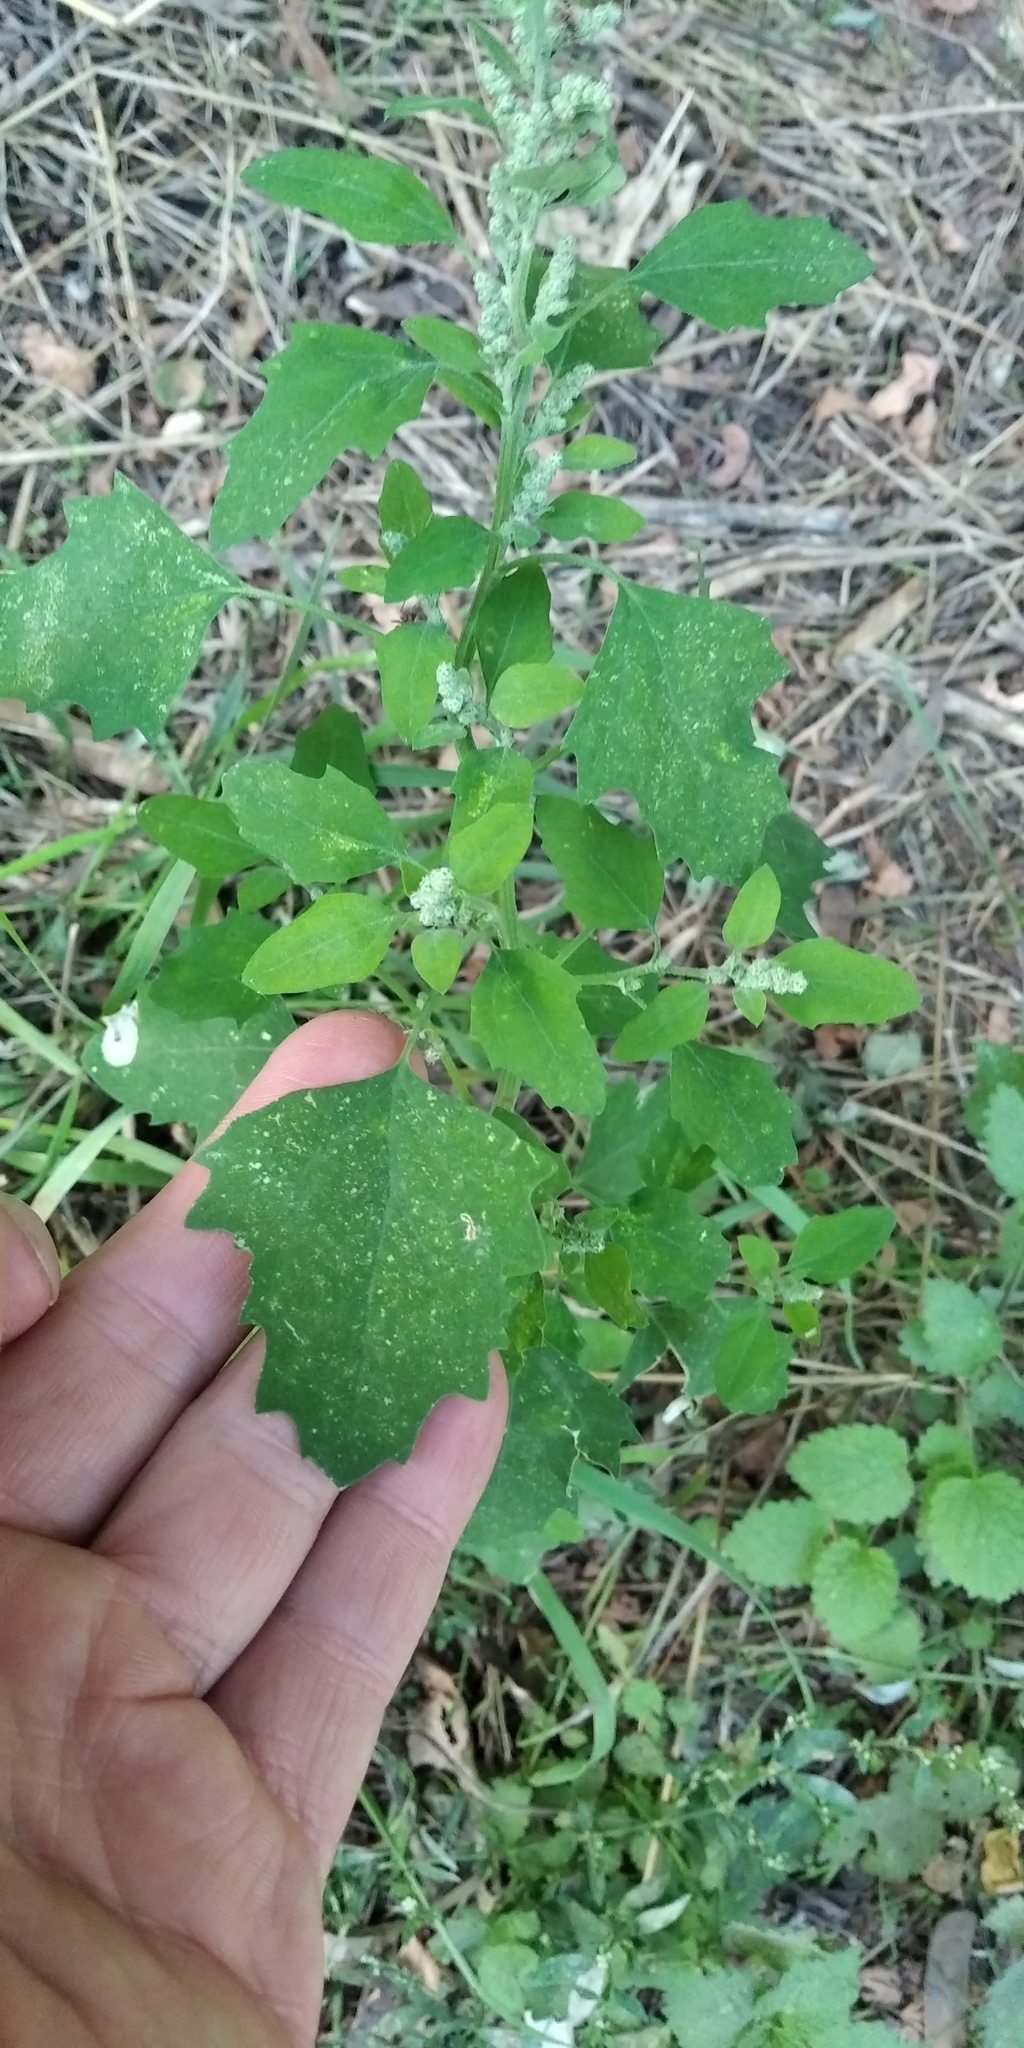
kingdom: Plantae
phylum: Tracheophyta
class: Magnoliopsida
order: Caryophyllales
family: Amaranthaceae
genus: Chenopodium
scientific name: Chenopodium album
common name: Fat-hen
